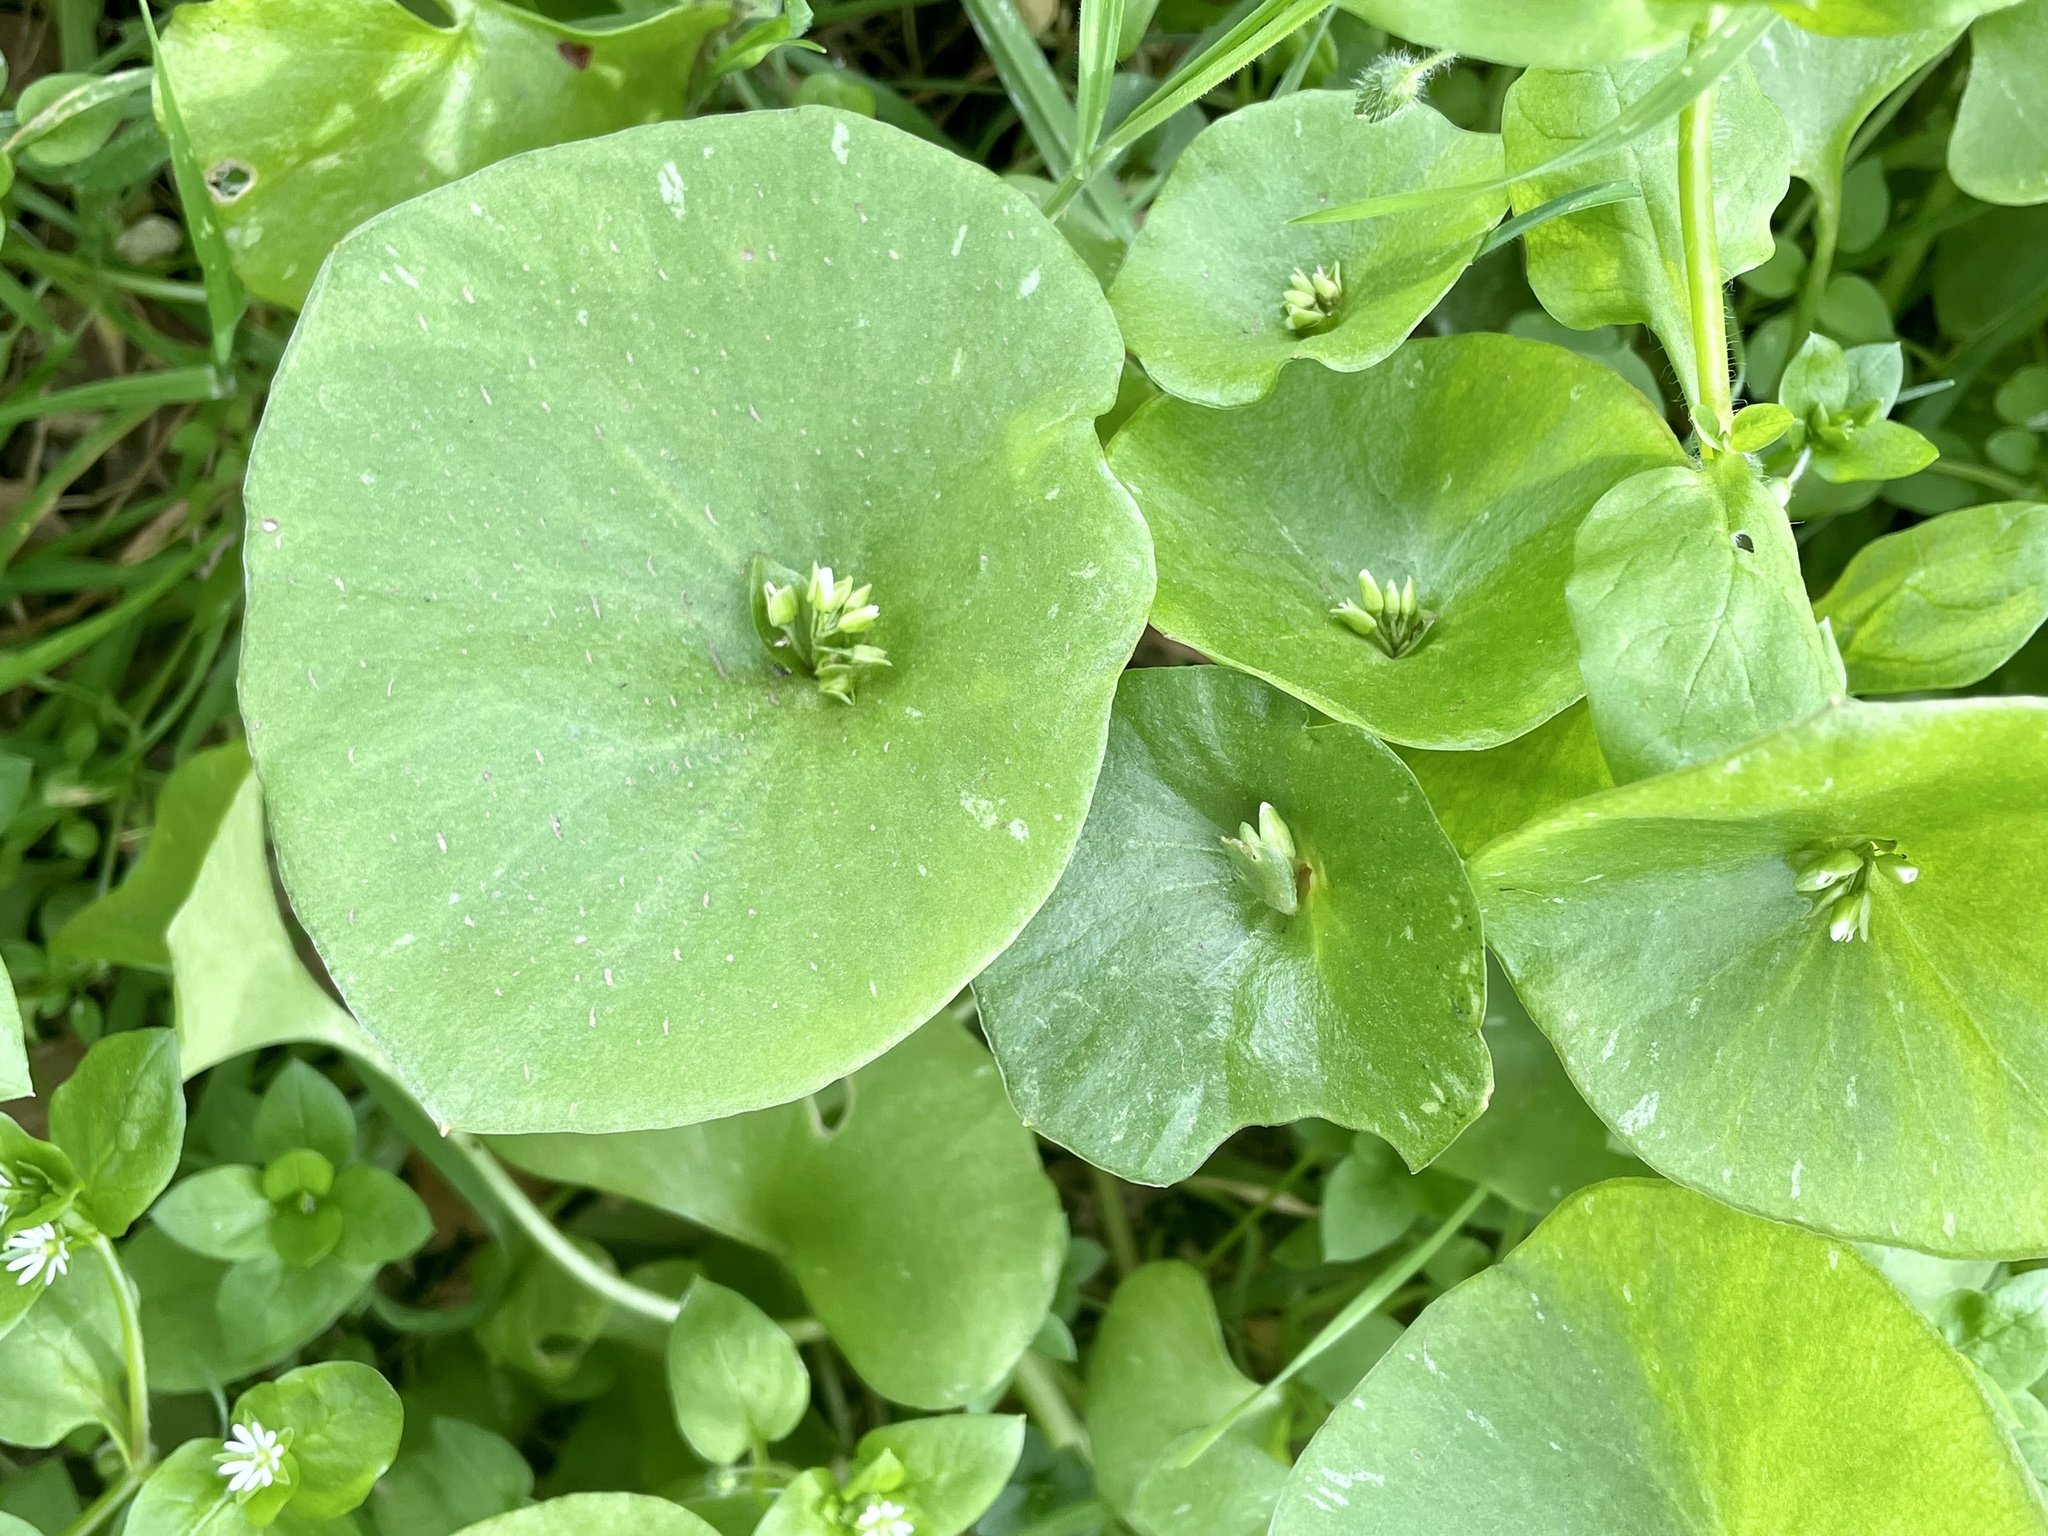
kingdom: Plantae
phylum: Tracheophyta
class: Magnoliopsida
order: Caryophyllales
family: Montiaceae
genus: Claytonia
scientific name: Claytonia perfoliata
